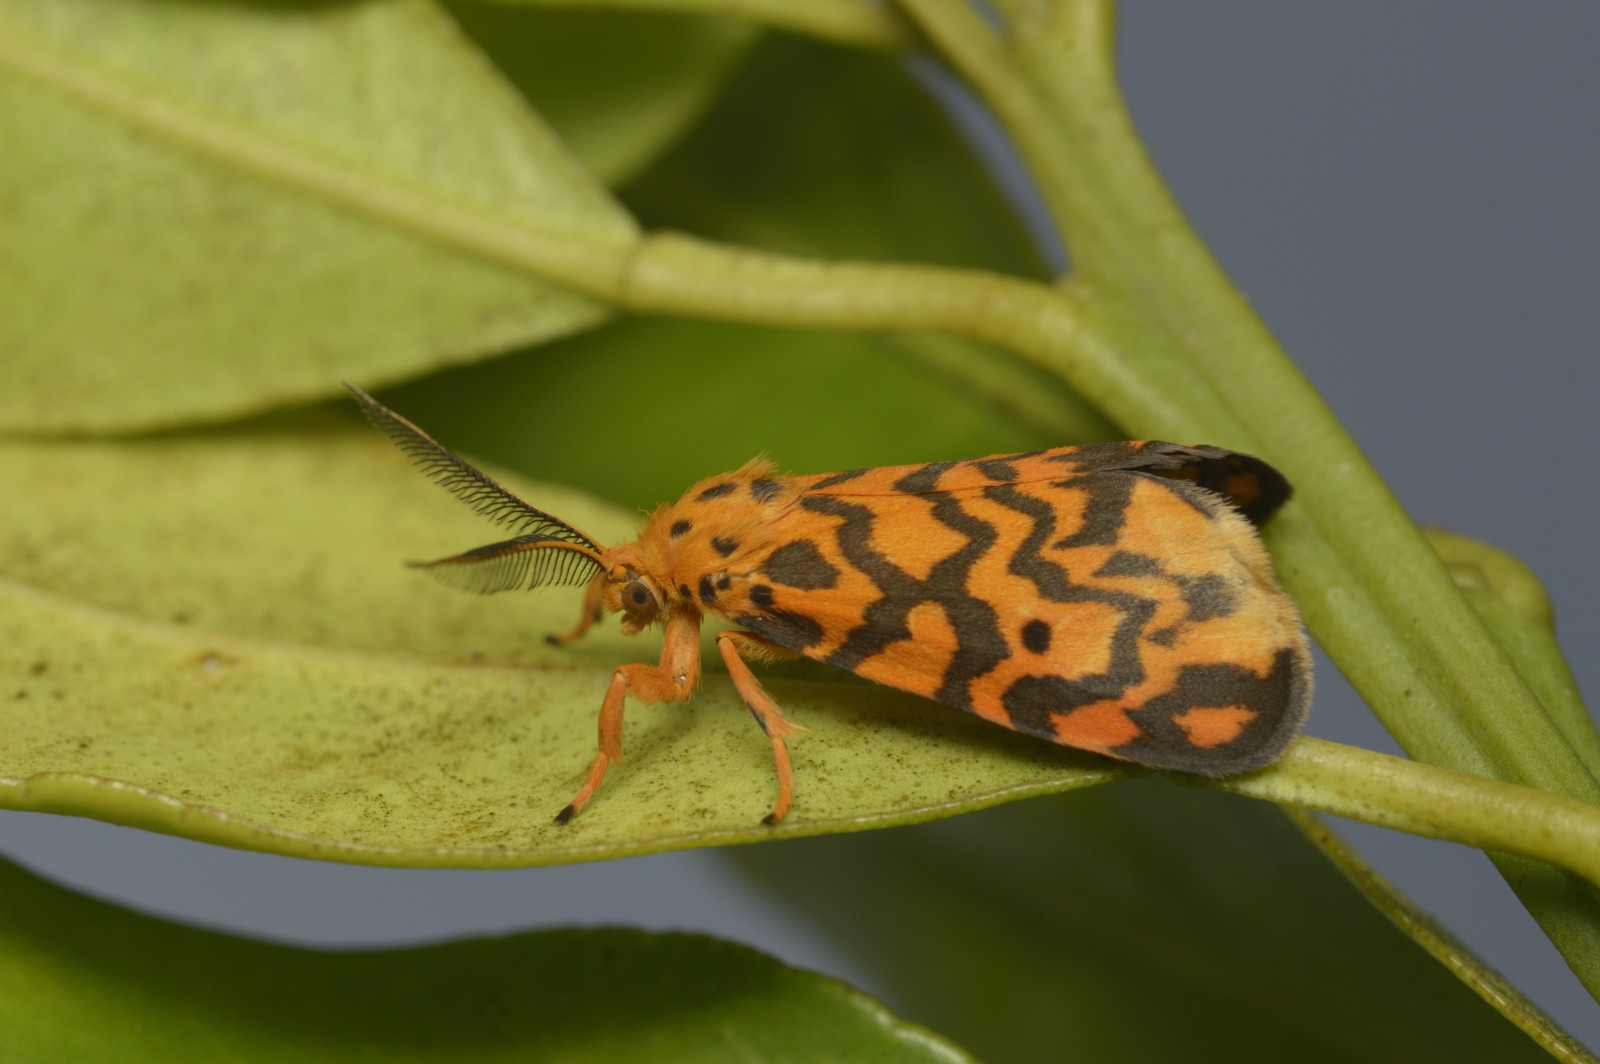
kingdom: Animalia
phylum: Arthropoda
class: Insecta
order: Lepidoptera
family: Erebidae
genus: Nepita
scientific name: Nepita conferta
